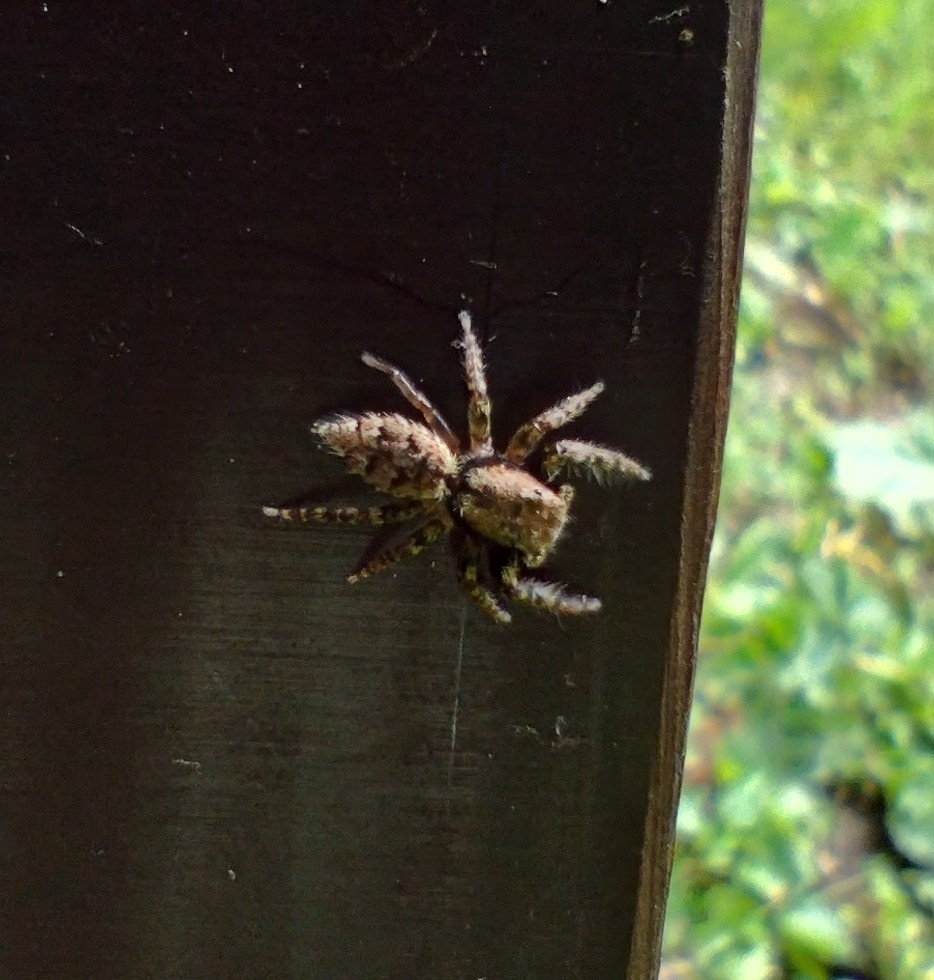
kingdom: Animalia
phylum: Arthropoda
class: Arachnida
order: Araneae
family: Salticidae
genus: Marpissa
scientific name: Marpissa muscosa
